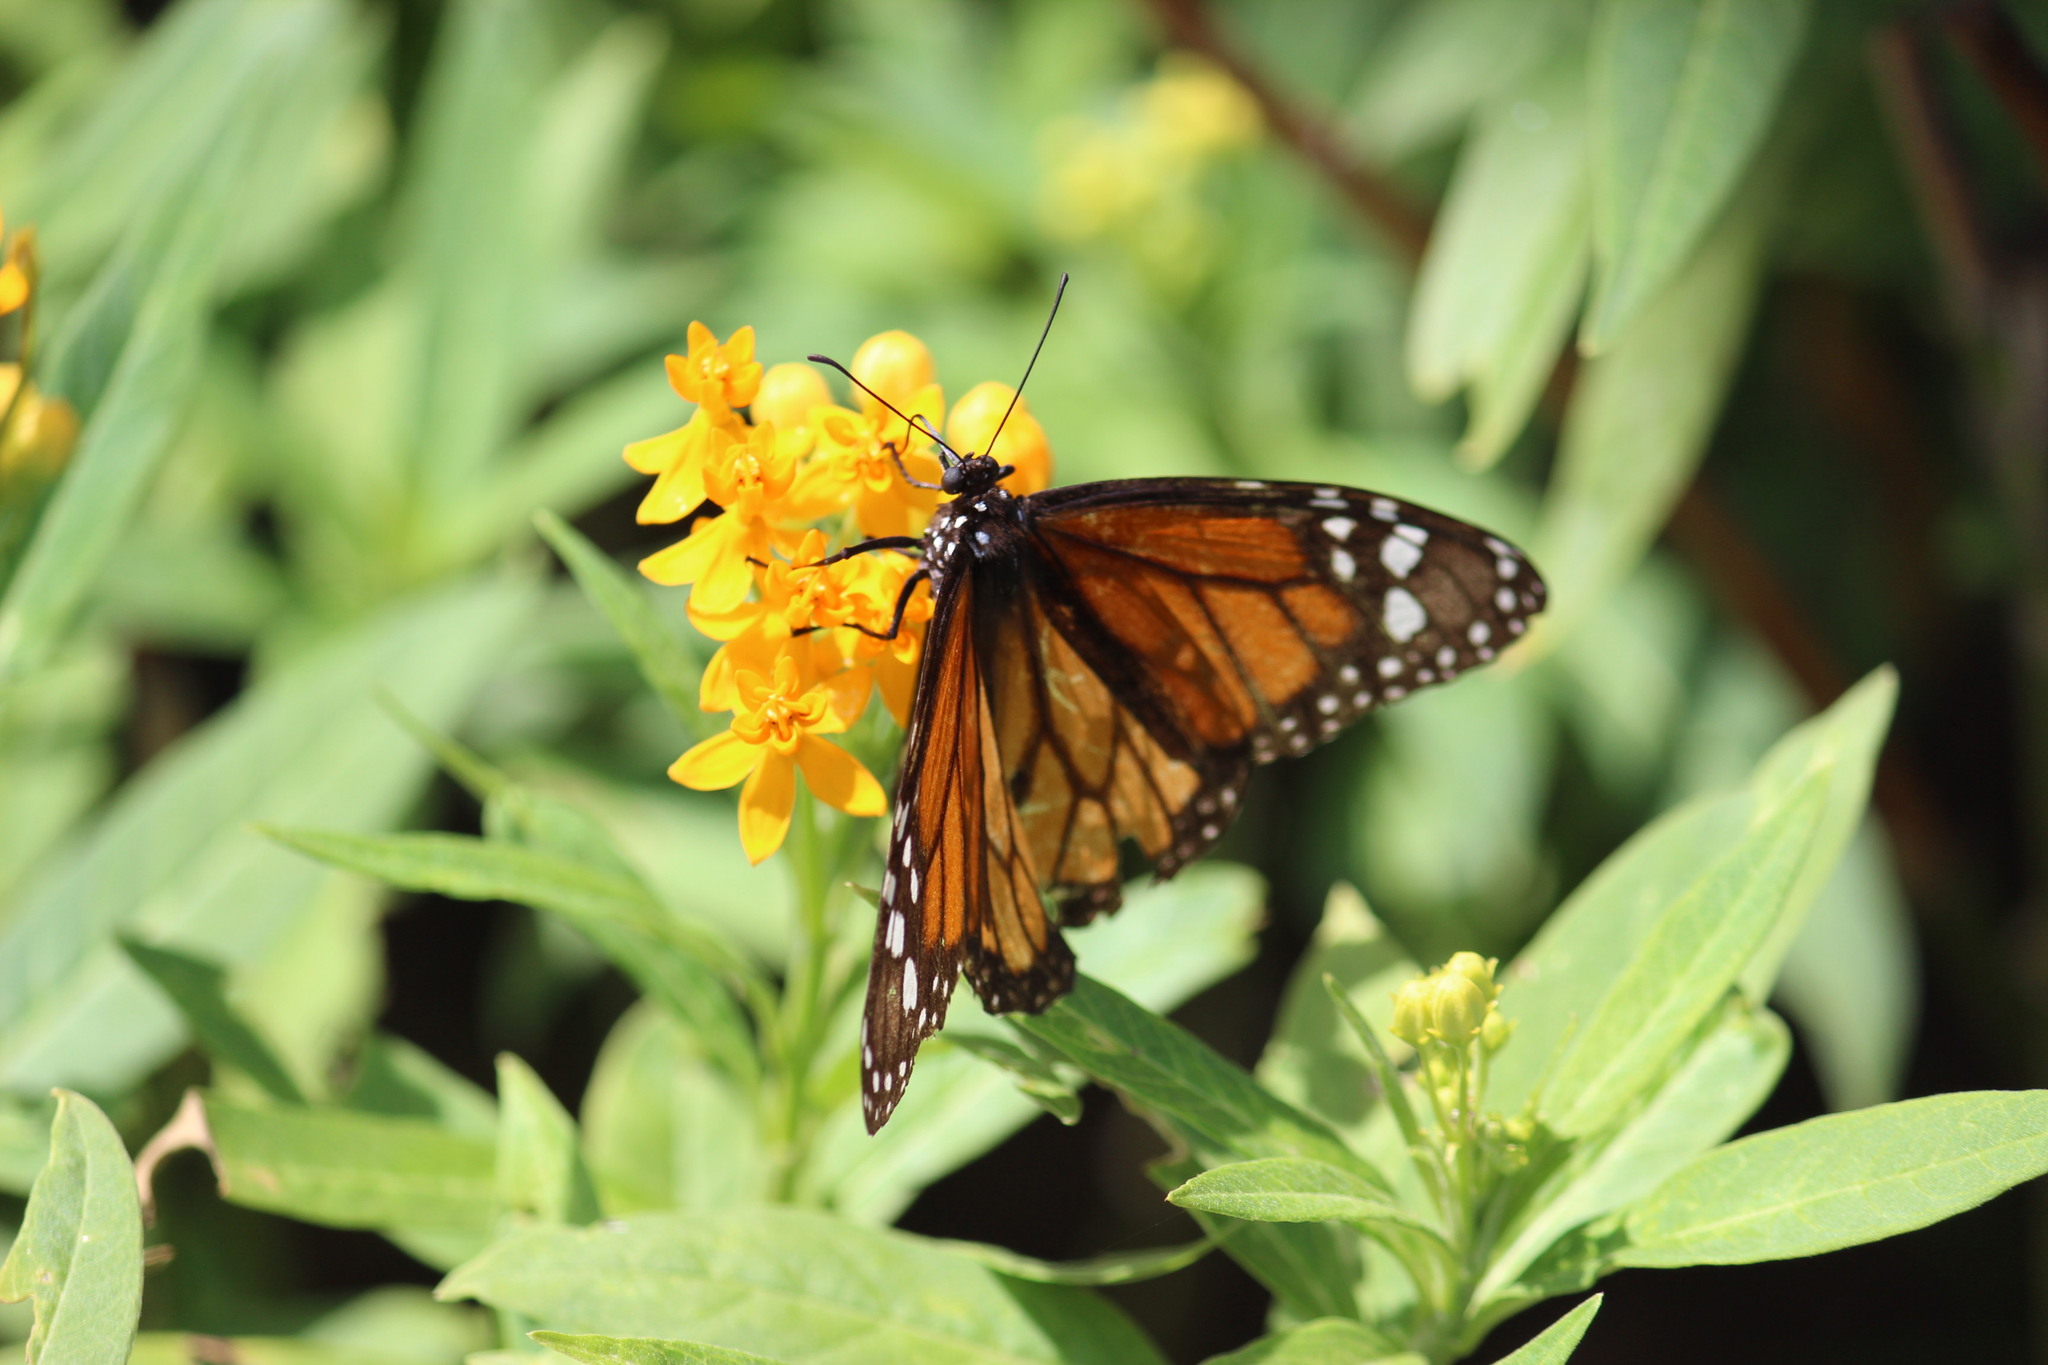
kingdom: Animalia
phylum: Arthropoda
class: Insecta
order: Lepidoptera
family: Nymphalidae
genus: Danaus
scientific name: Danaus plexippus
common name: Monarch
